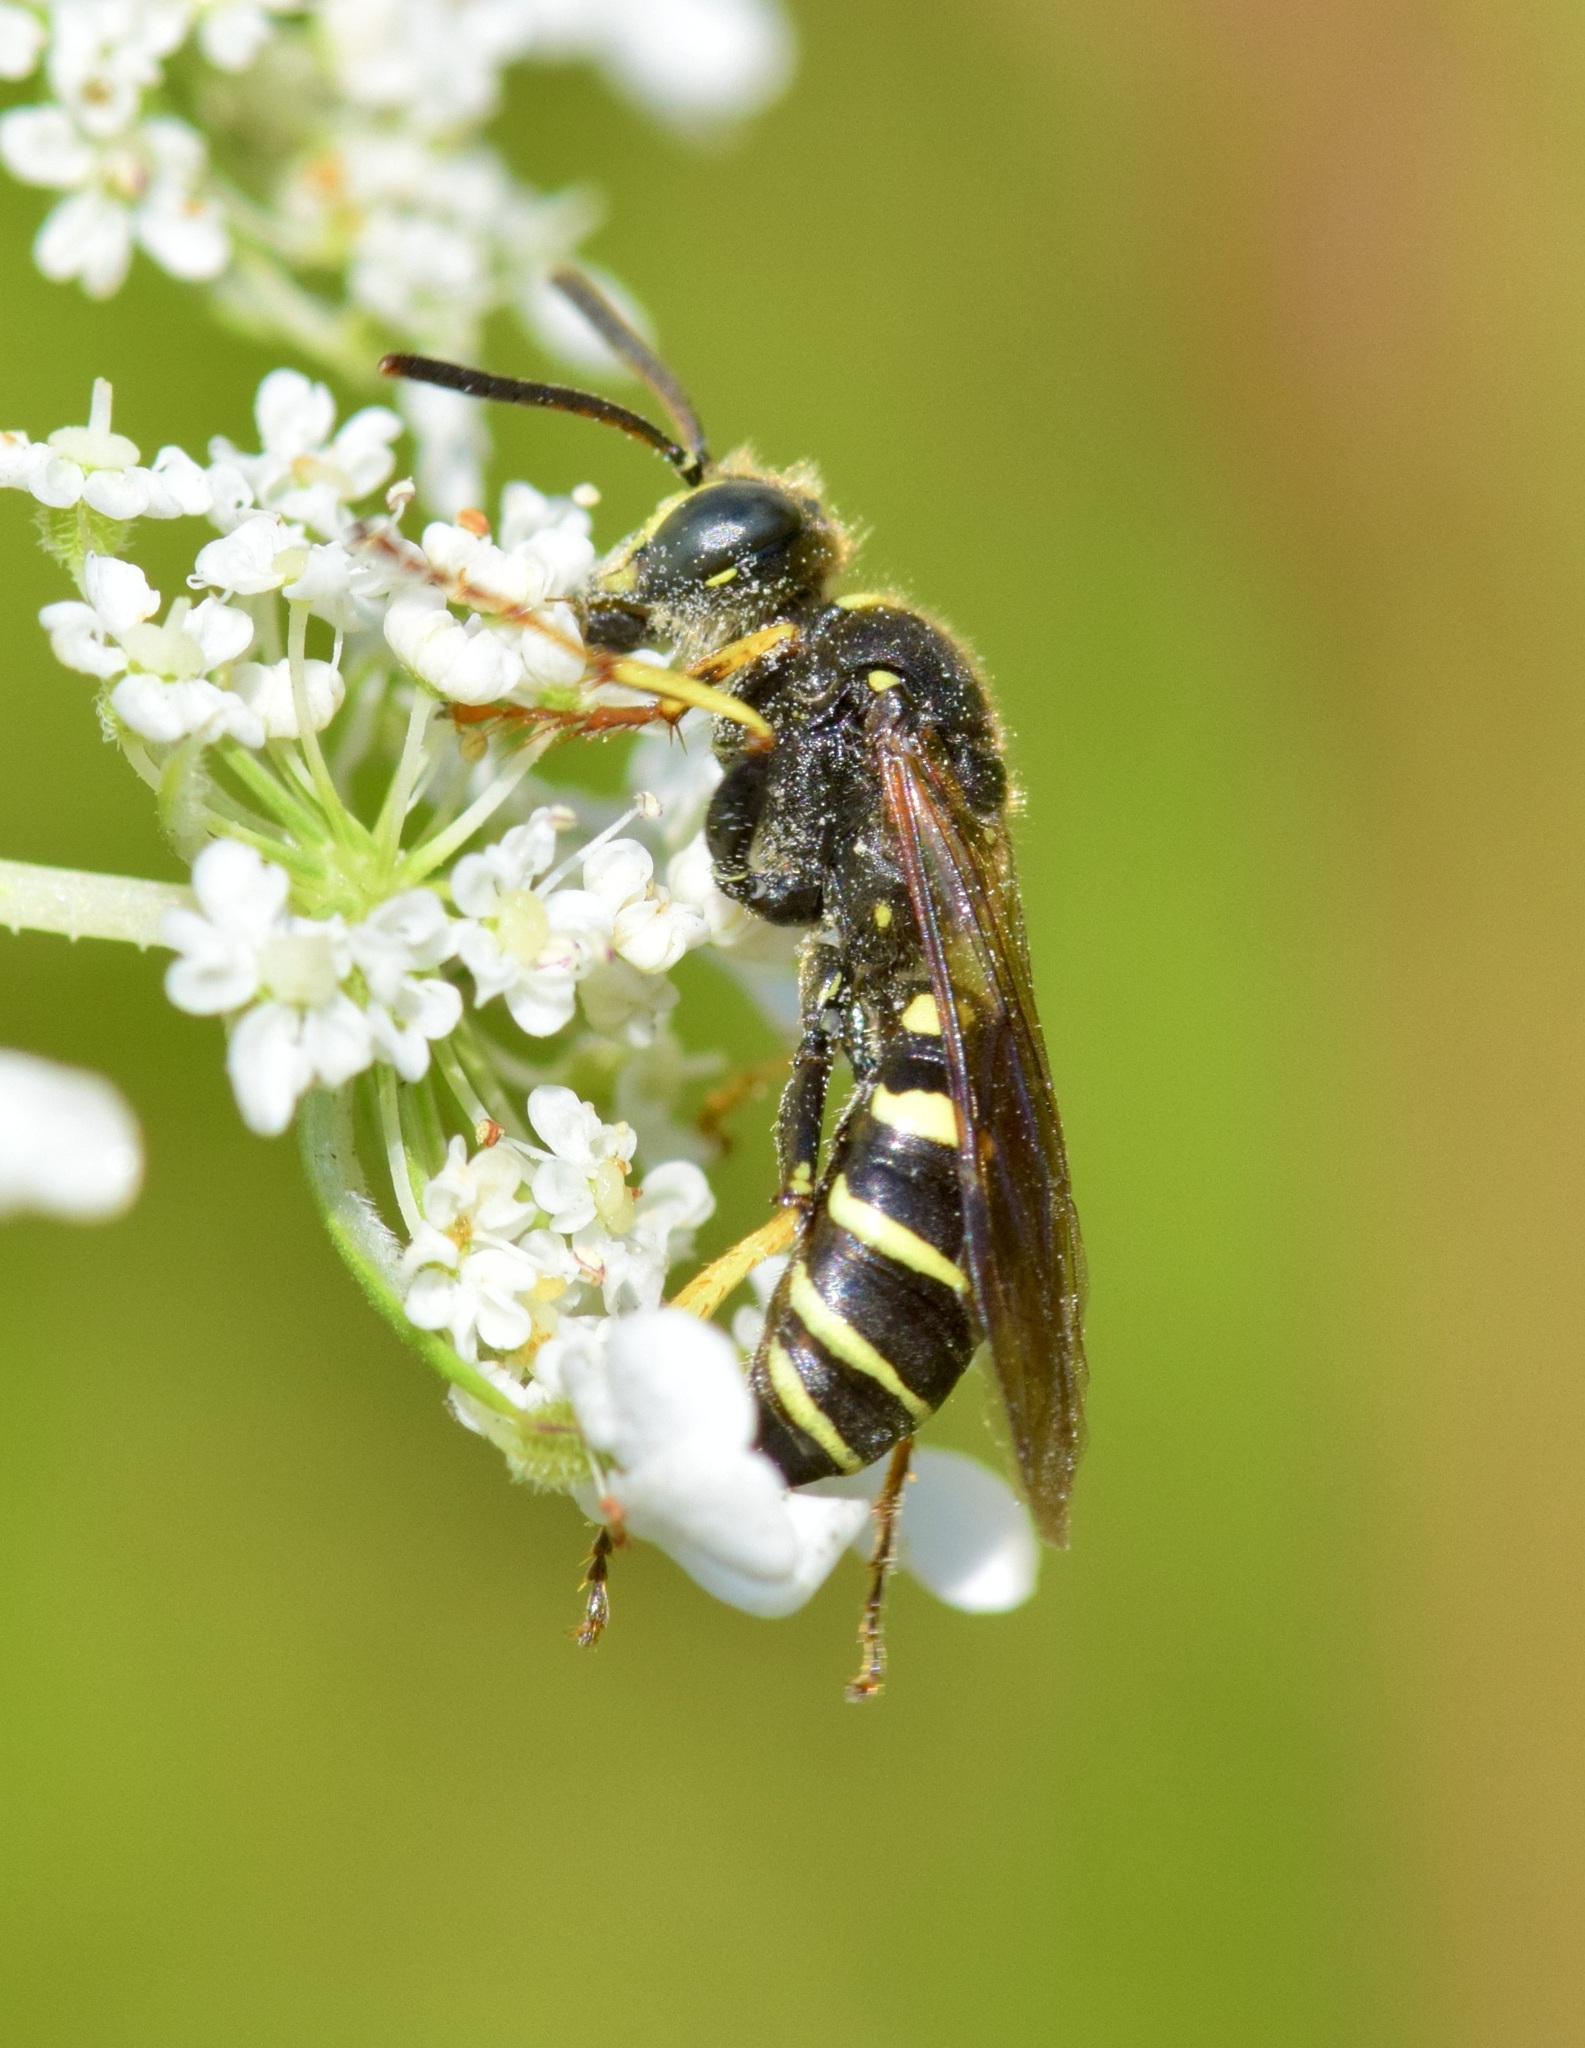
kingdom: Animalia
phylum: Arthropoda
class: Insecta
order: Hymenoptera
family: Crabronidae
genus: Aphilanthops
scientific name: Aphilanthops frigidus
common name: Queen ant kidnapper
